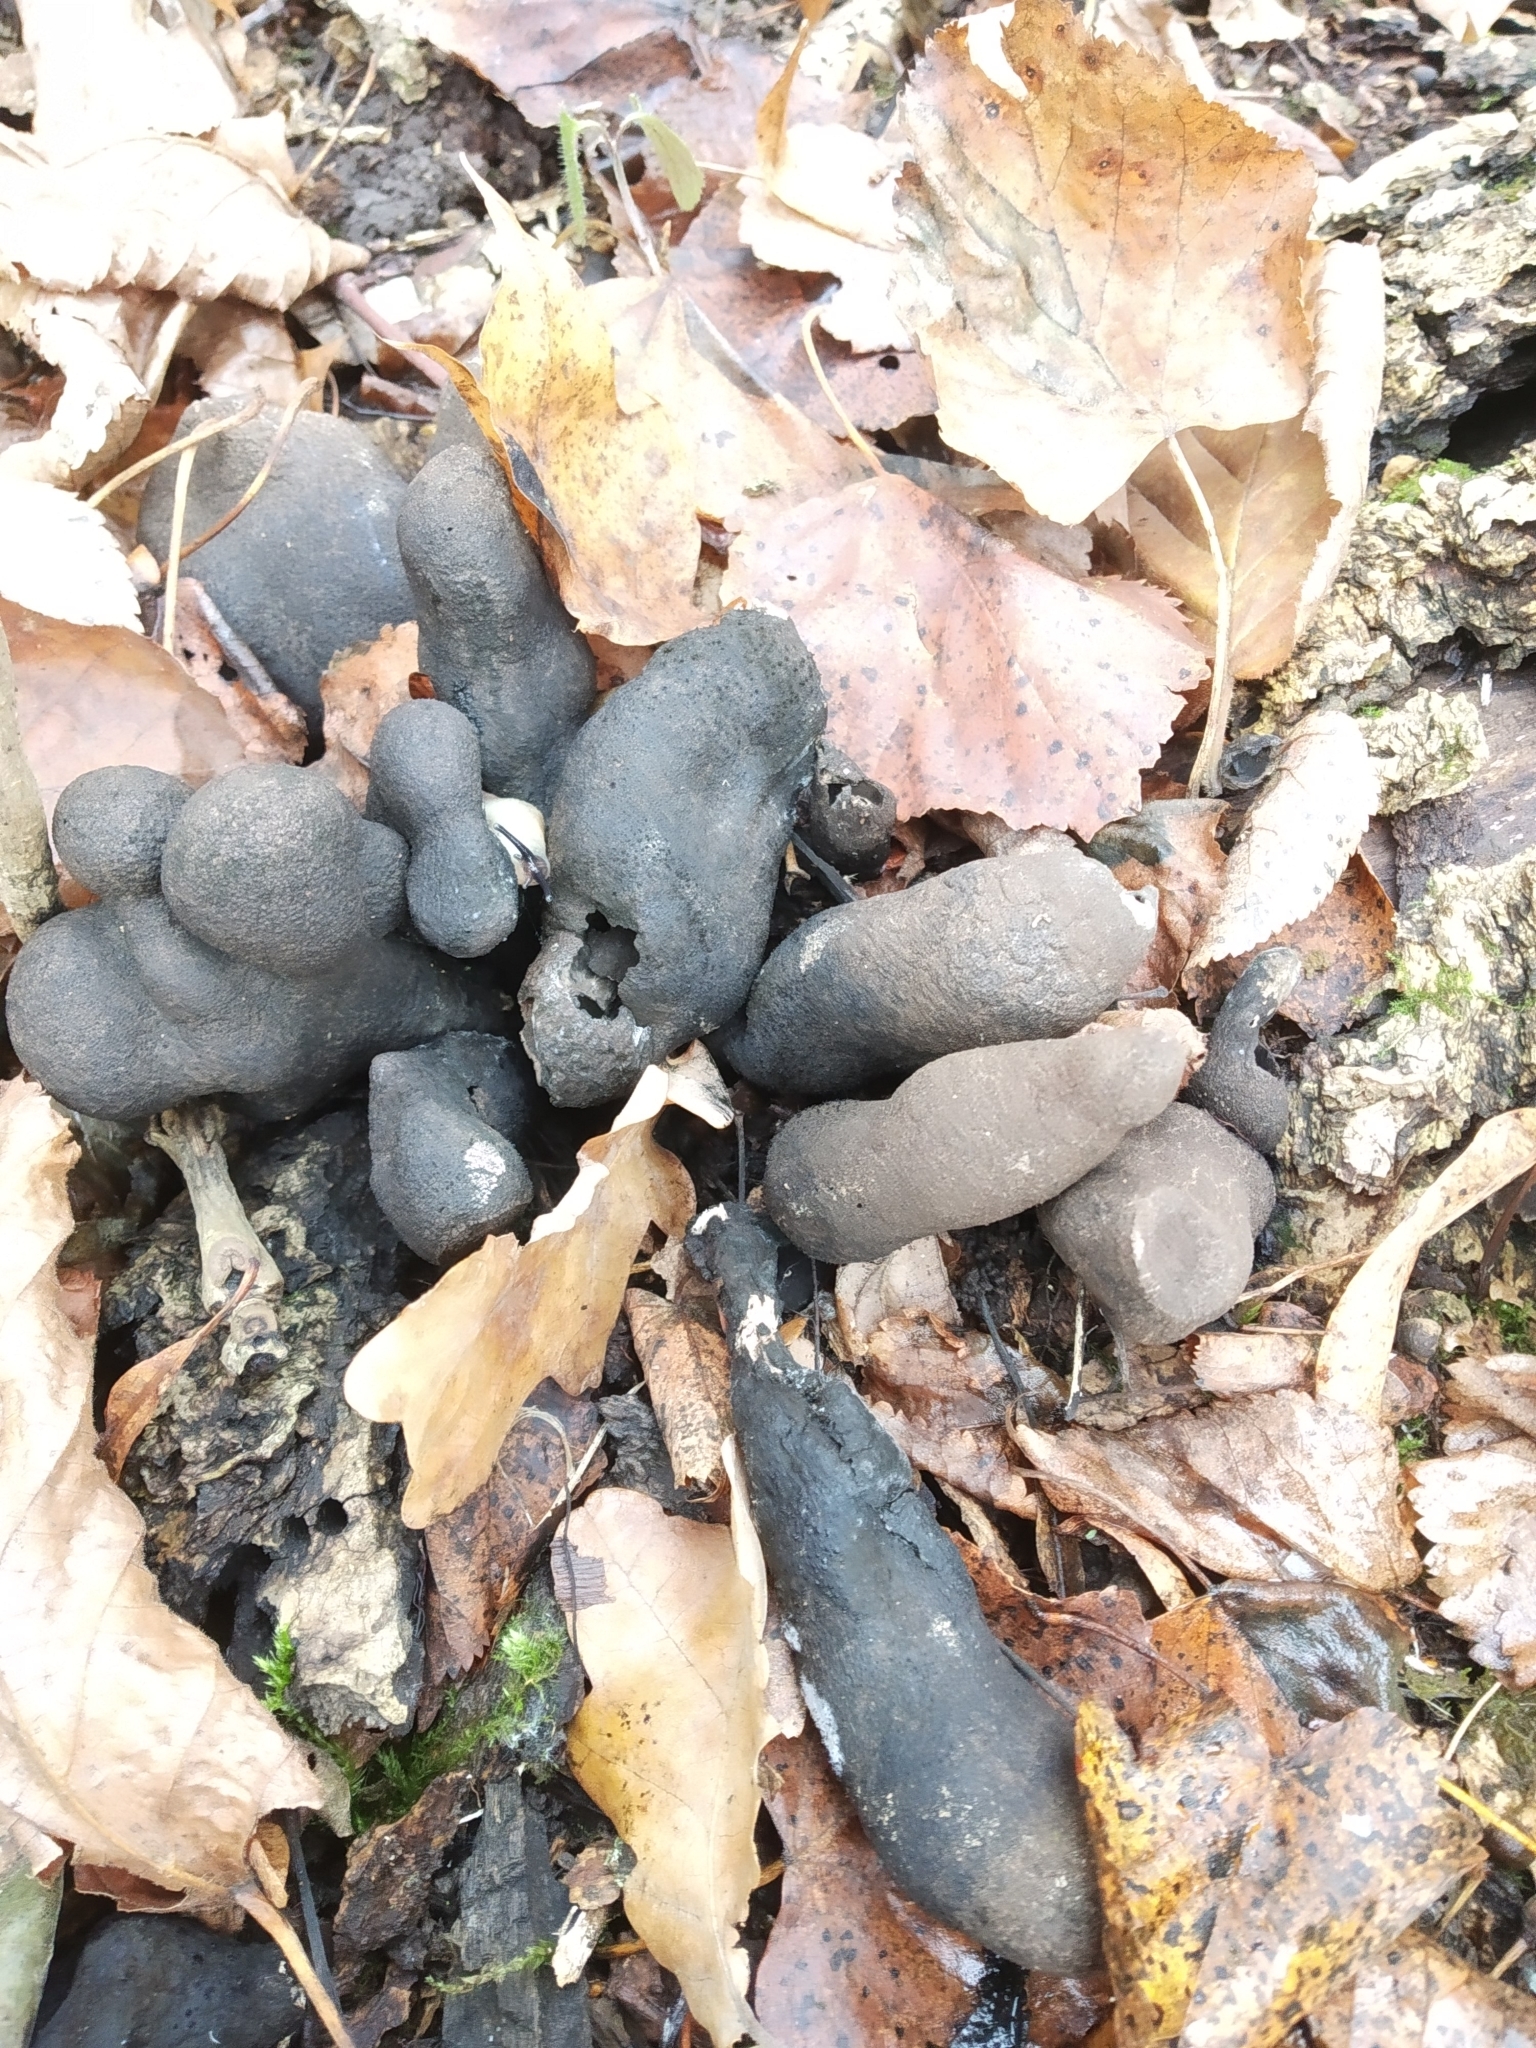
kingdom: Fungi
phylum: Ascomycota
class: Sordariomycetes
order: Xylariales
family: Xylariaceae
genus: Xylaria
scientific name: Xylaria polymorpha
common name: Dead man's fingers
